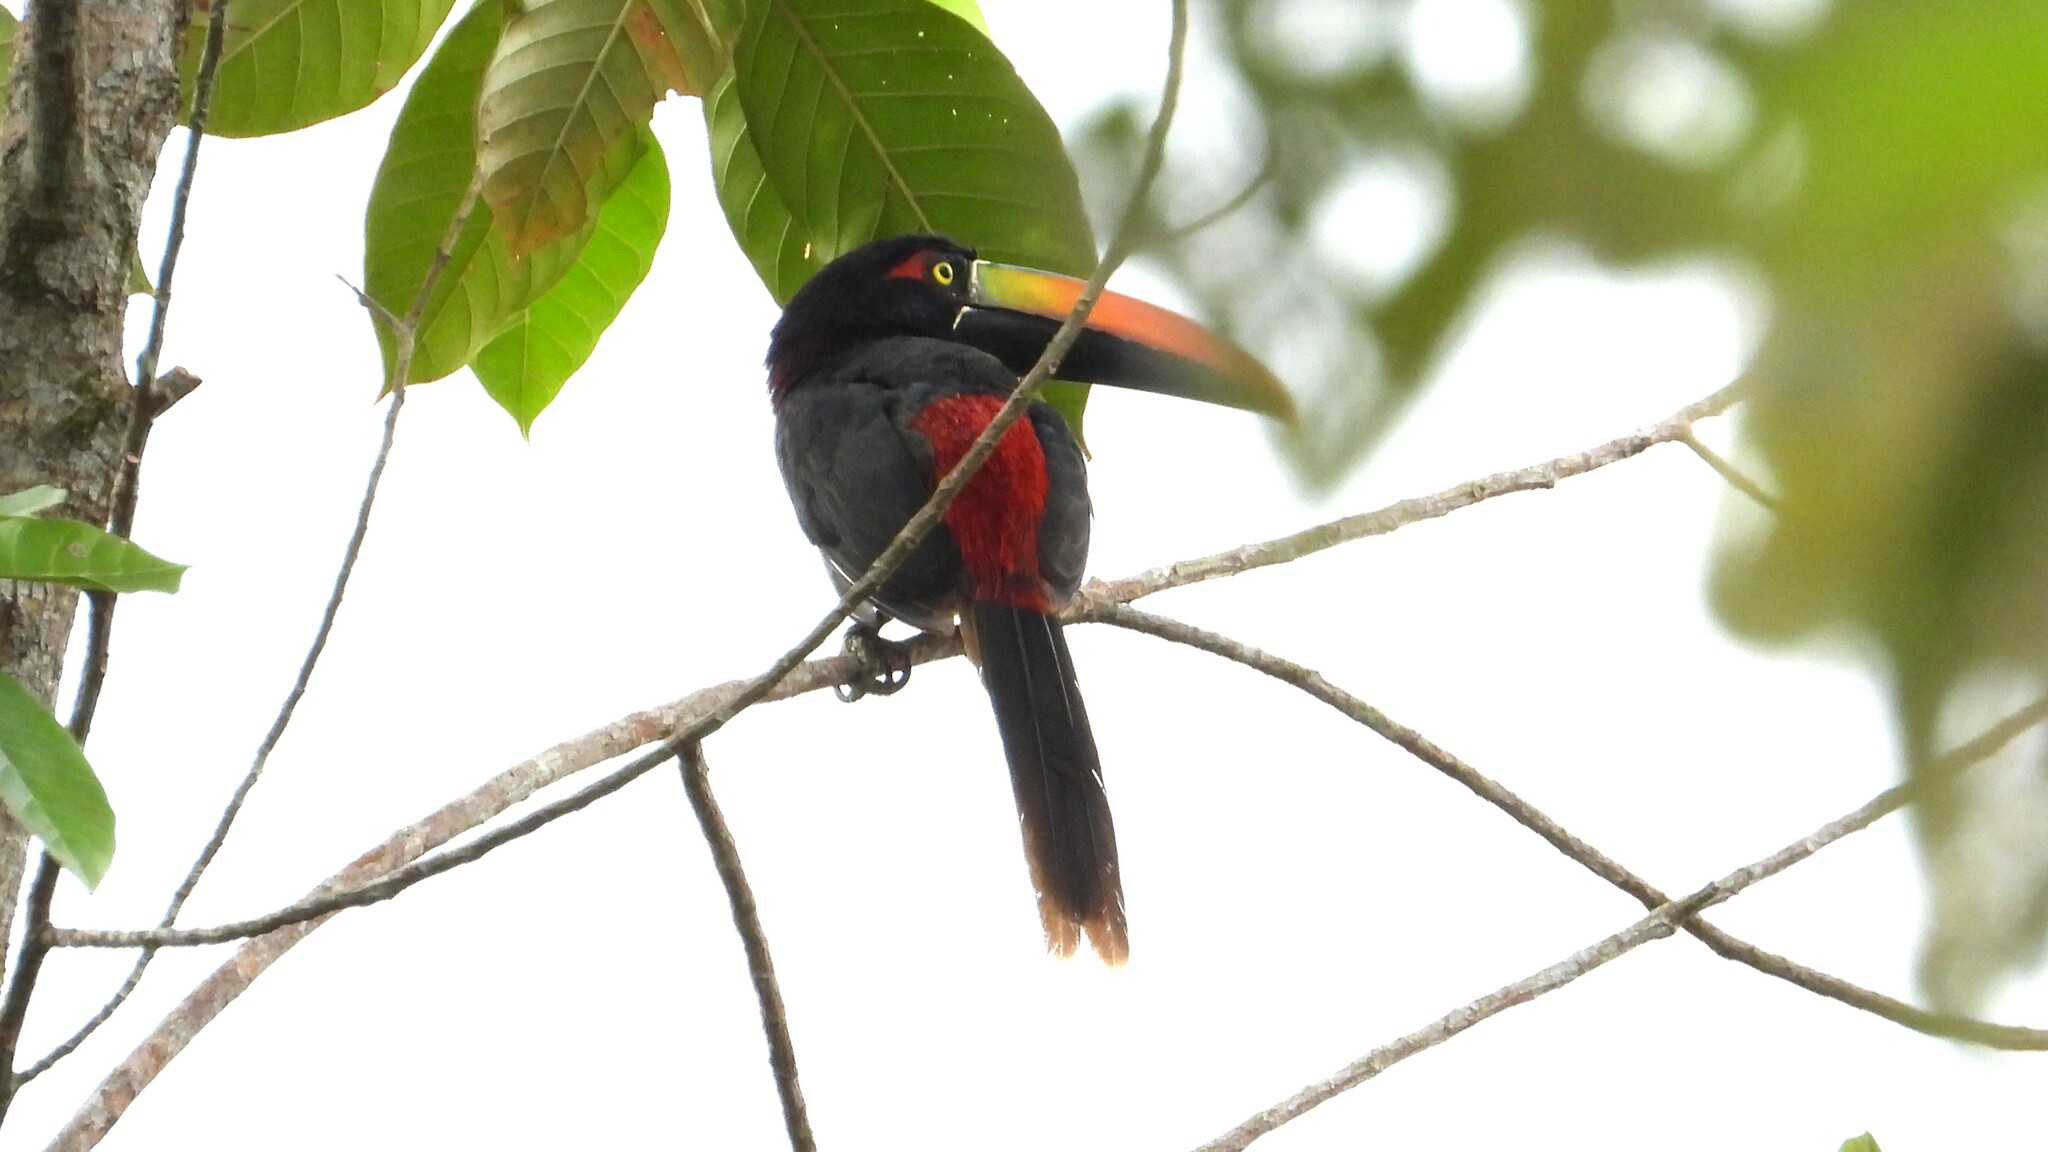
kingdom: Animalia
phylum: Chordata
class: Aves
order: Piciformes
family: Ramphastidae
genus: Pteroglossus
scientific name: Pteroglossus frantzii
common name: Fiery-billed aracari
